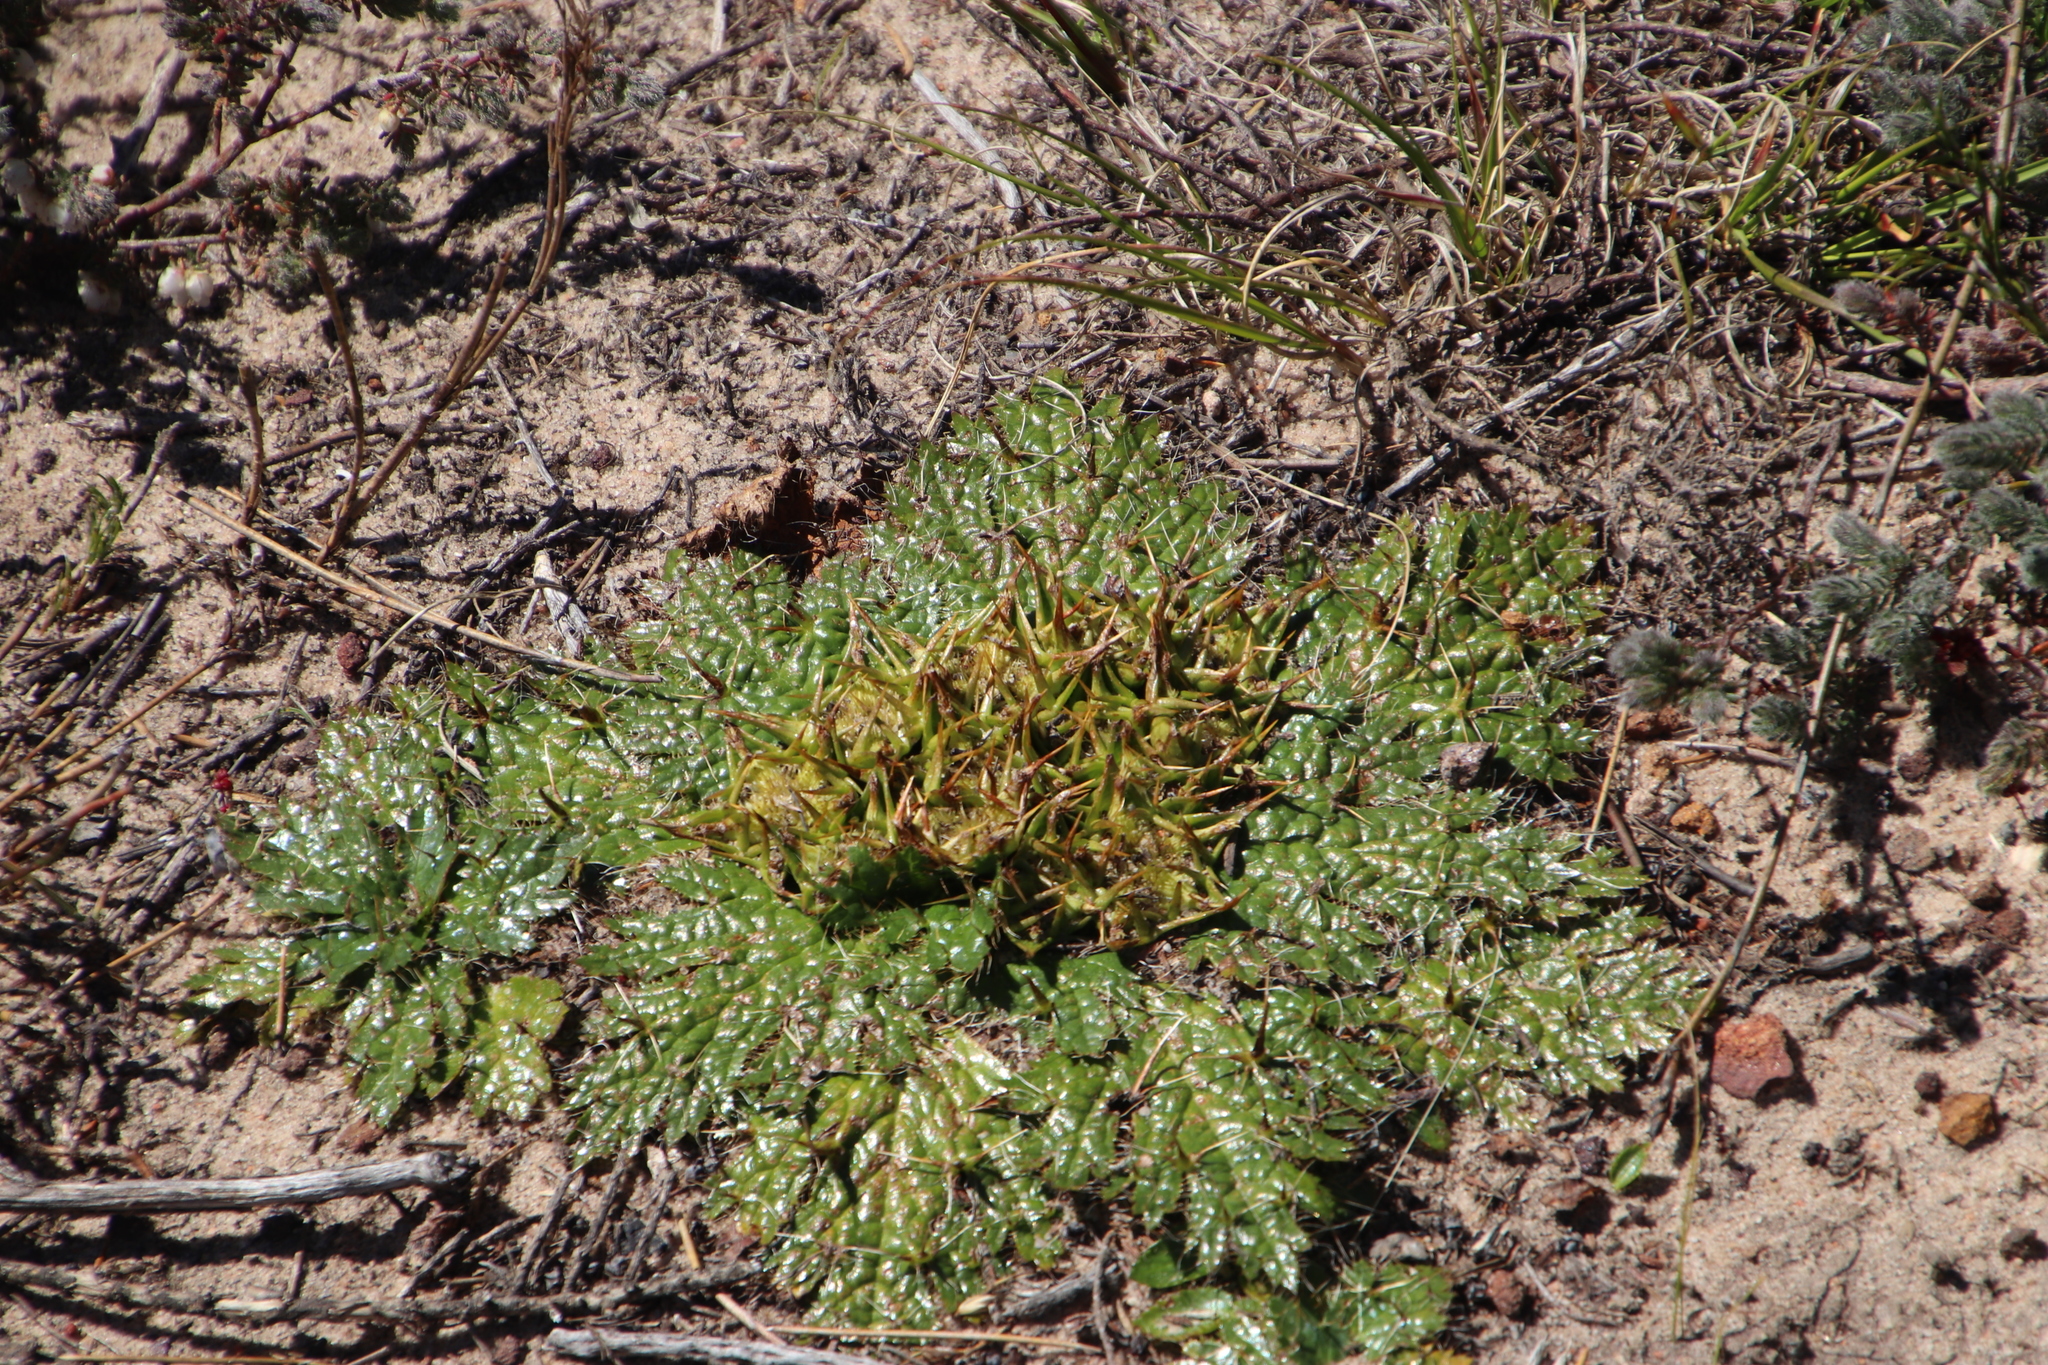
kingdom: Plantae
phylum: Tracheophyta
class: Magnoliopsida
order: Apiales
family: Apiaceae
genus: Arctopus
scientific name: Arctopus echinatus
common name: Platdoring
